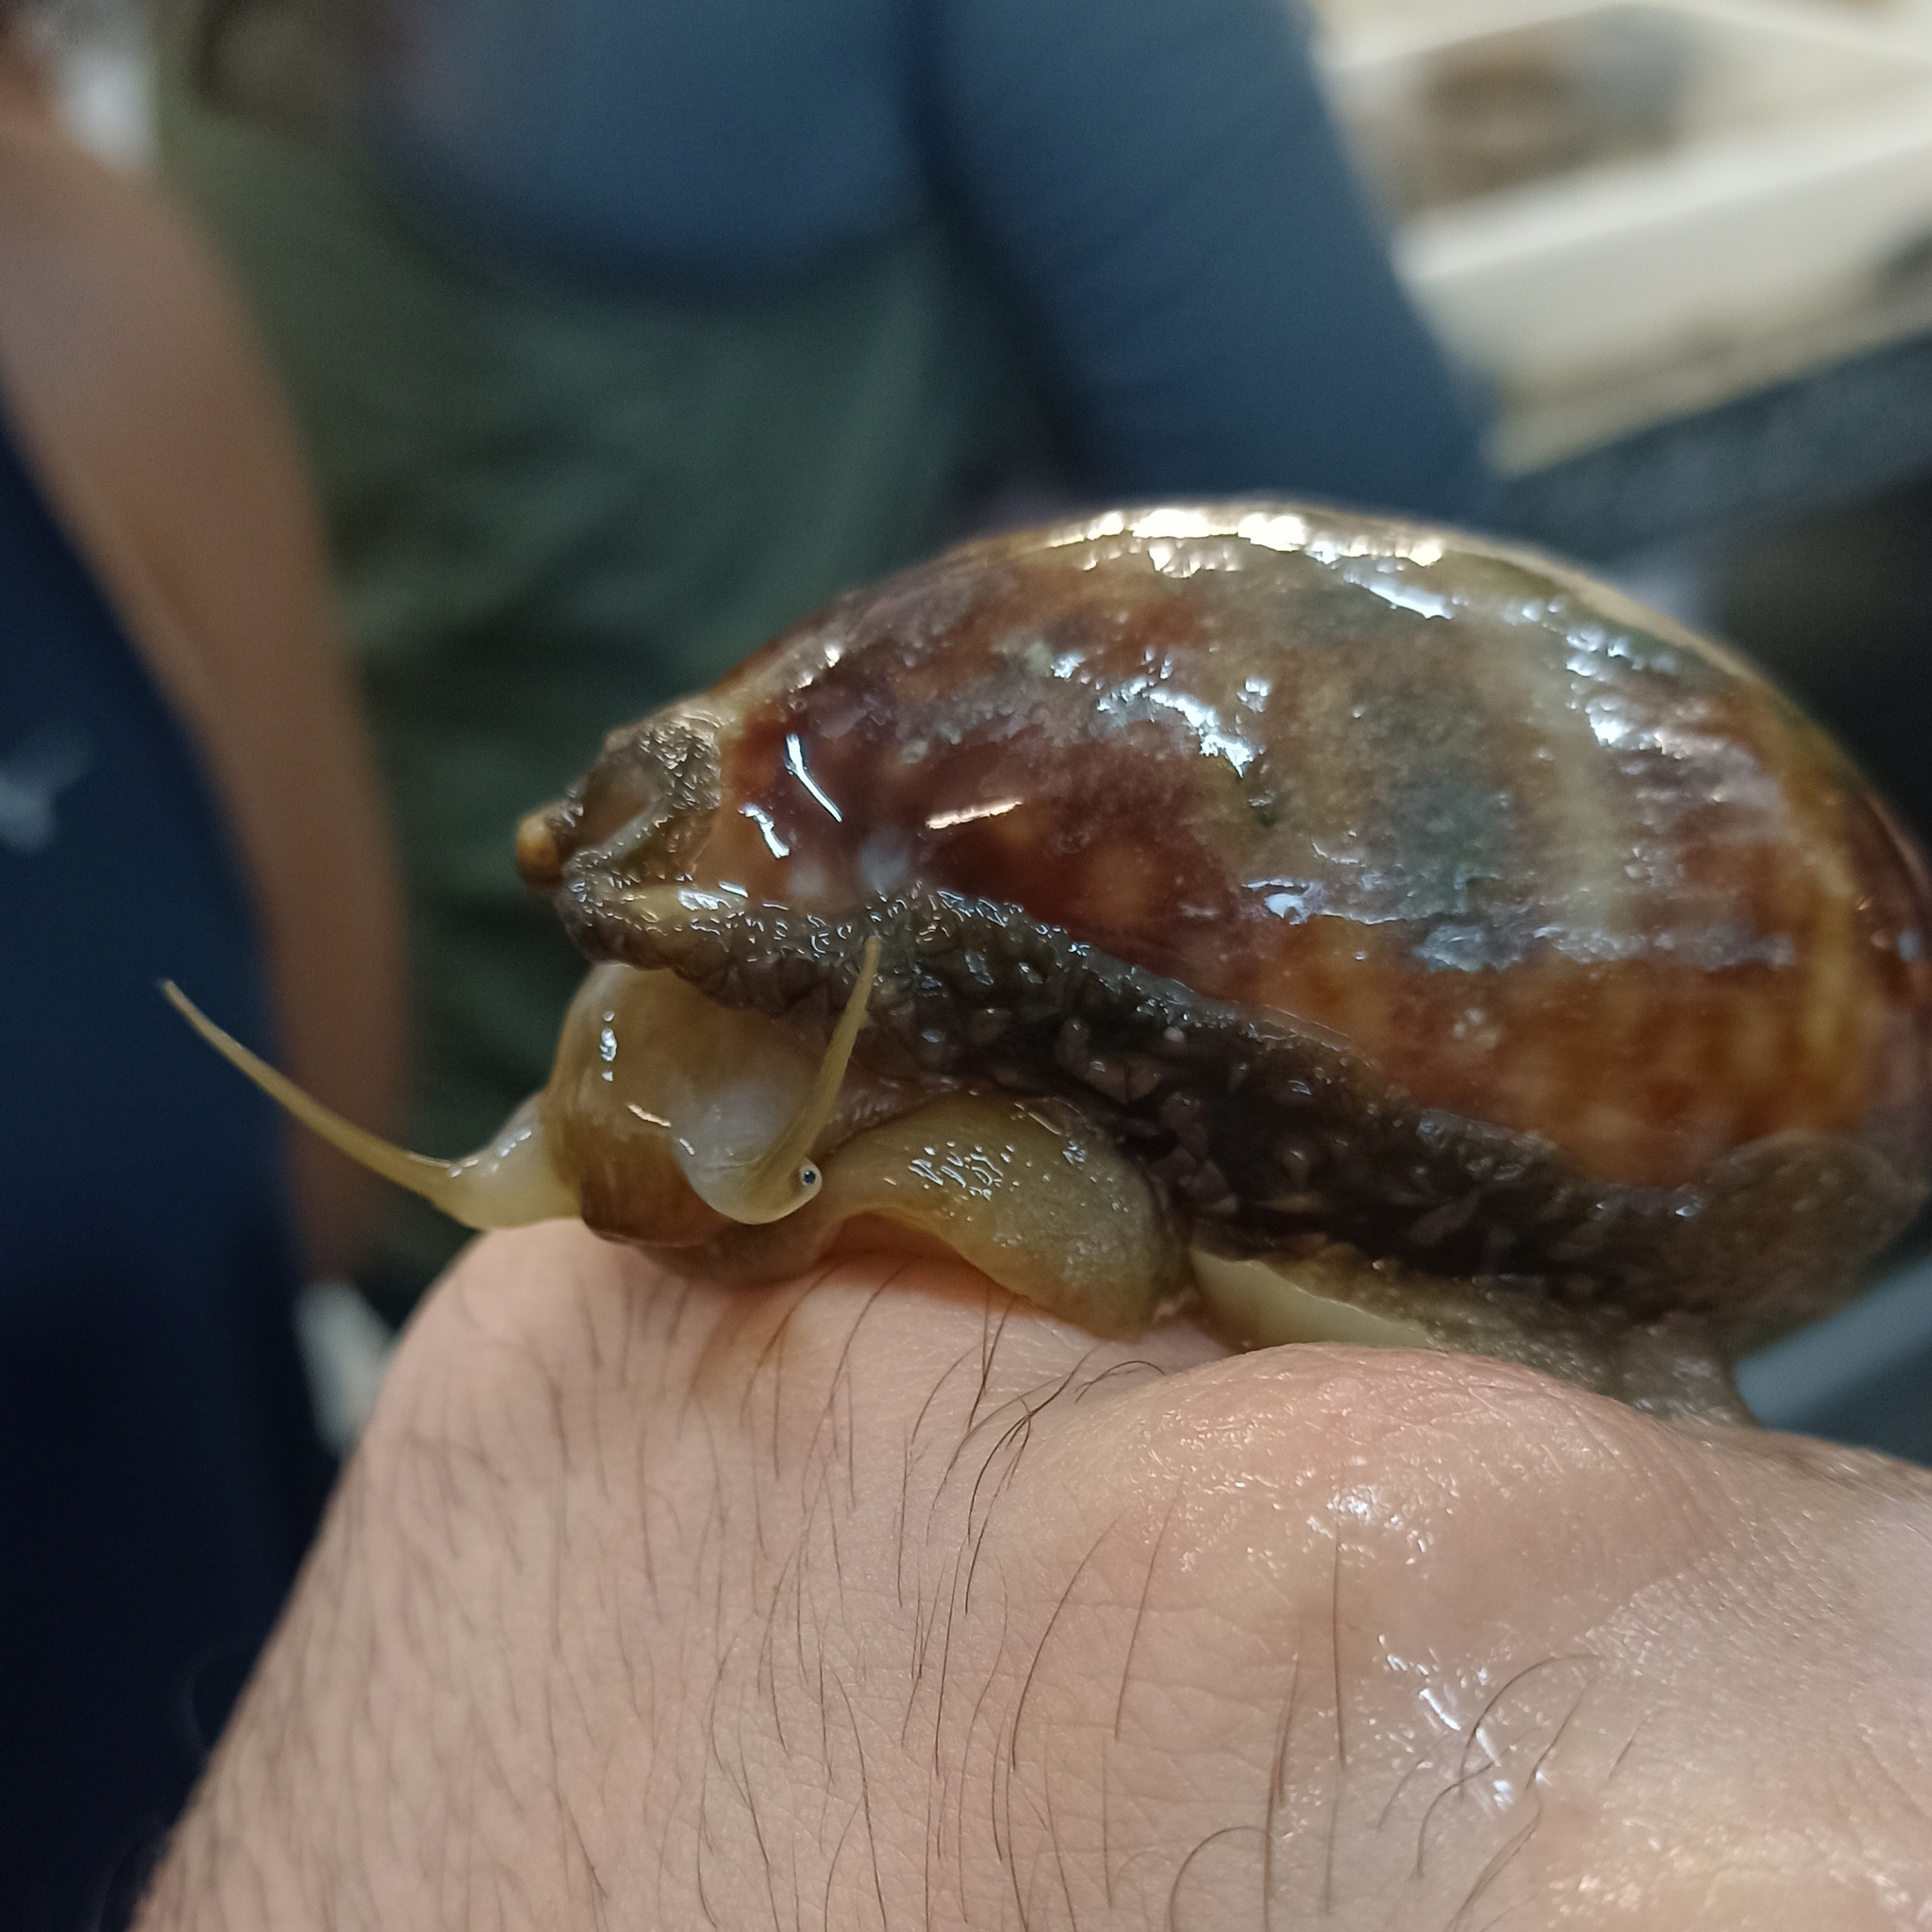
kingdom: Animalia
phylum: Mollusca
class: Gastropoda
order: Littorinimorpha
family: Cypraeidae
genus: Macrocypraea
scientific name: Macrocypraea zebra
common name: Measled cowrie
